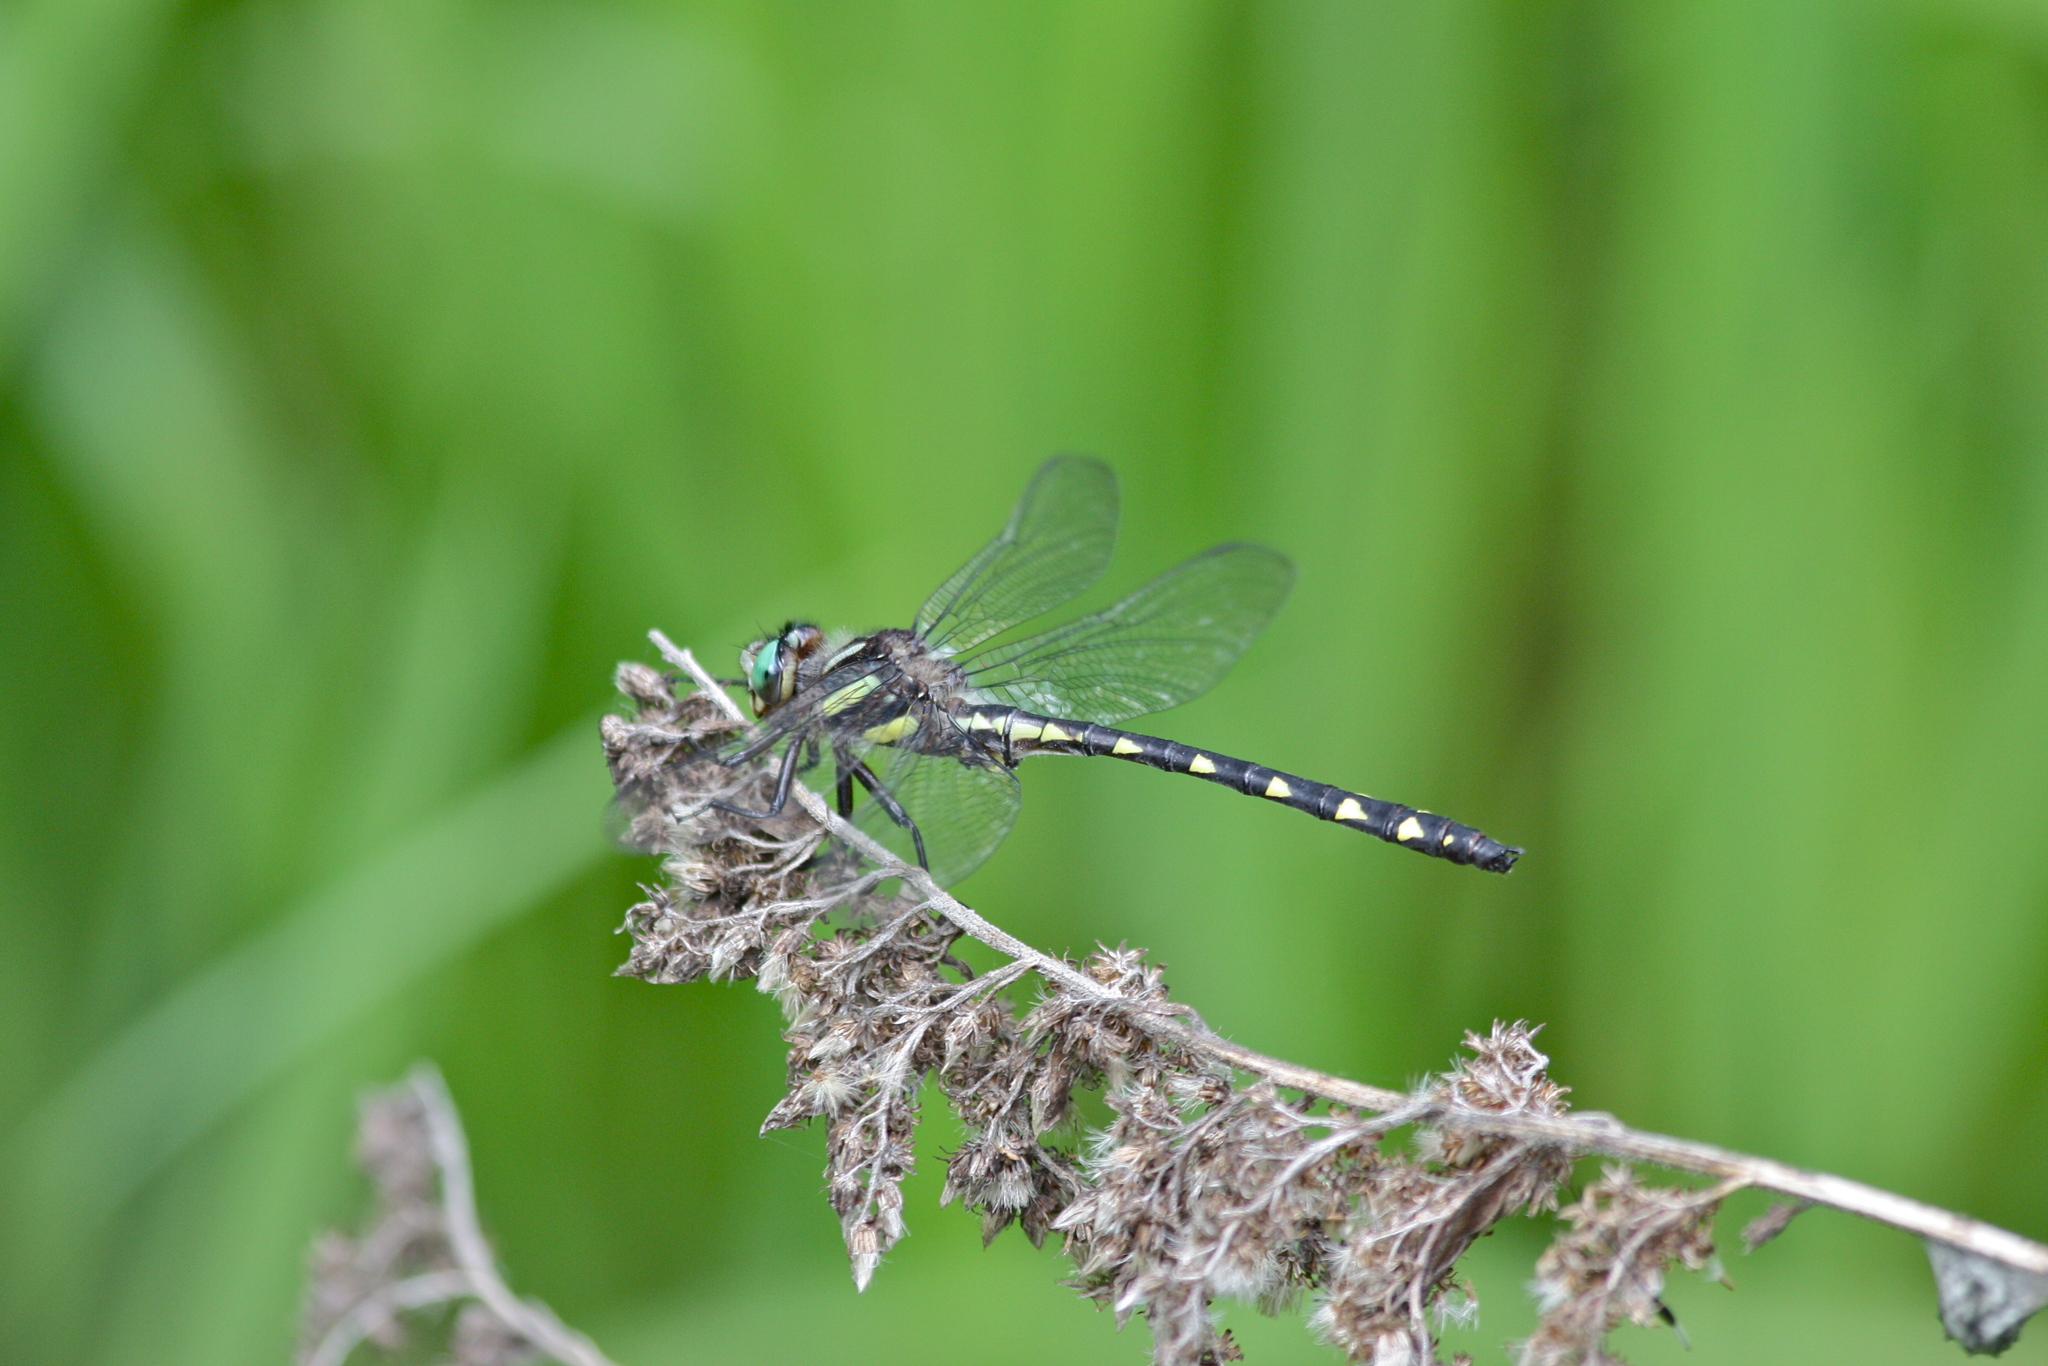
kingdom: Animalia
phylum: Arthropoda
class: Insecta
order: Odonata
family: Cordulegastridae
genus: Cordulegaster
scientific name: Cordulegaster diastatops
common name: Delta-spotted spiketail
